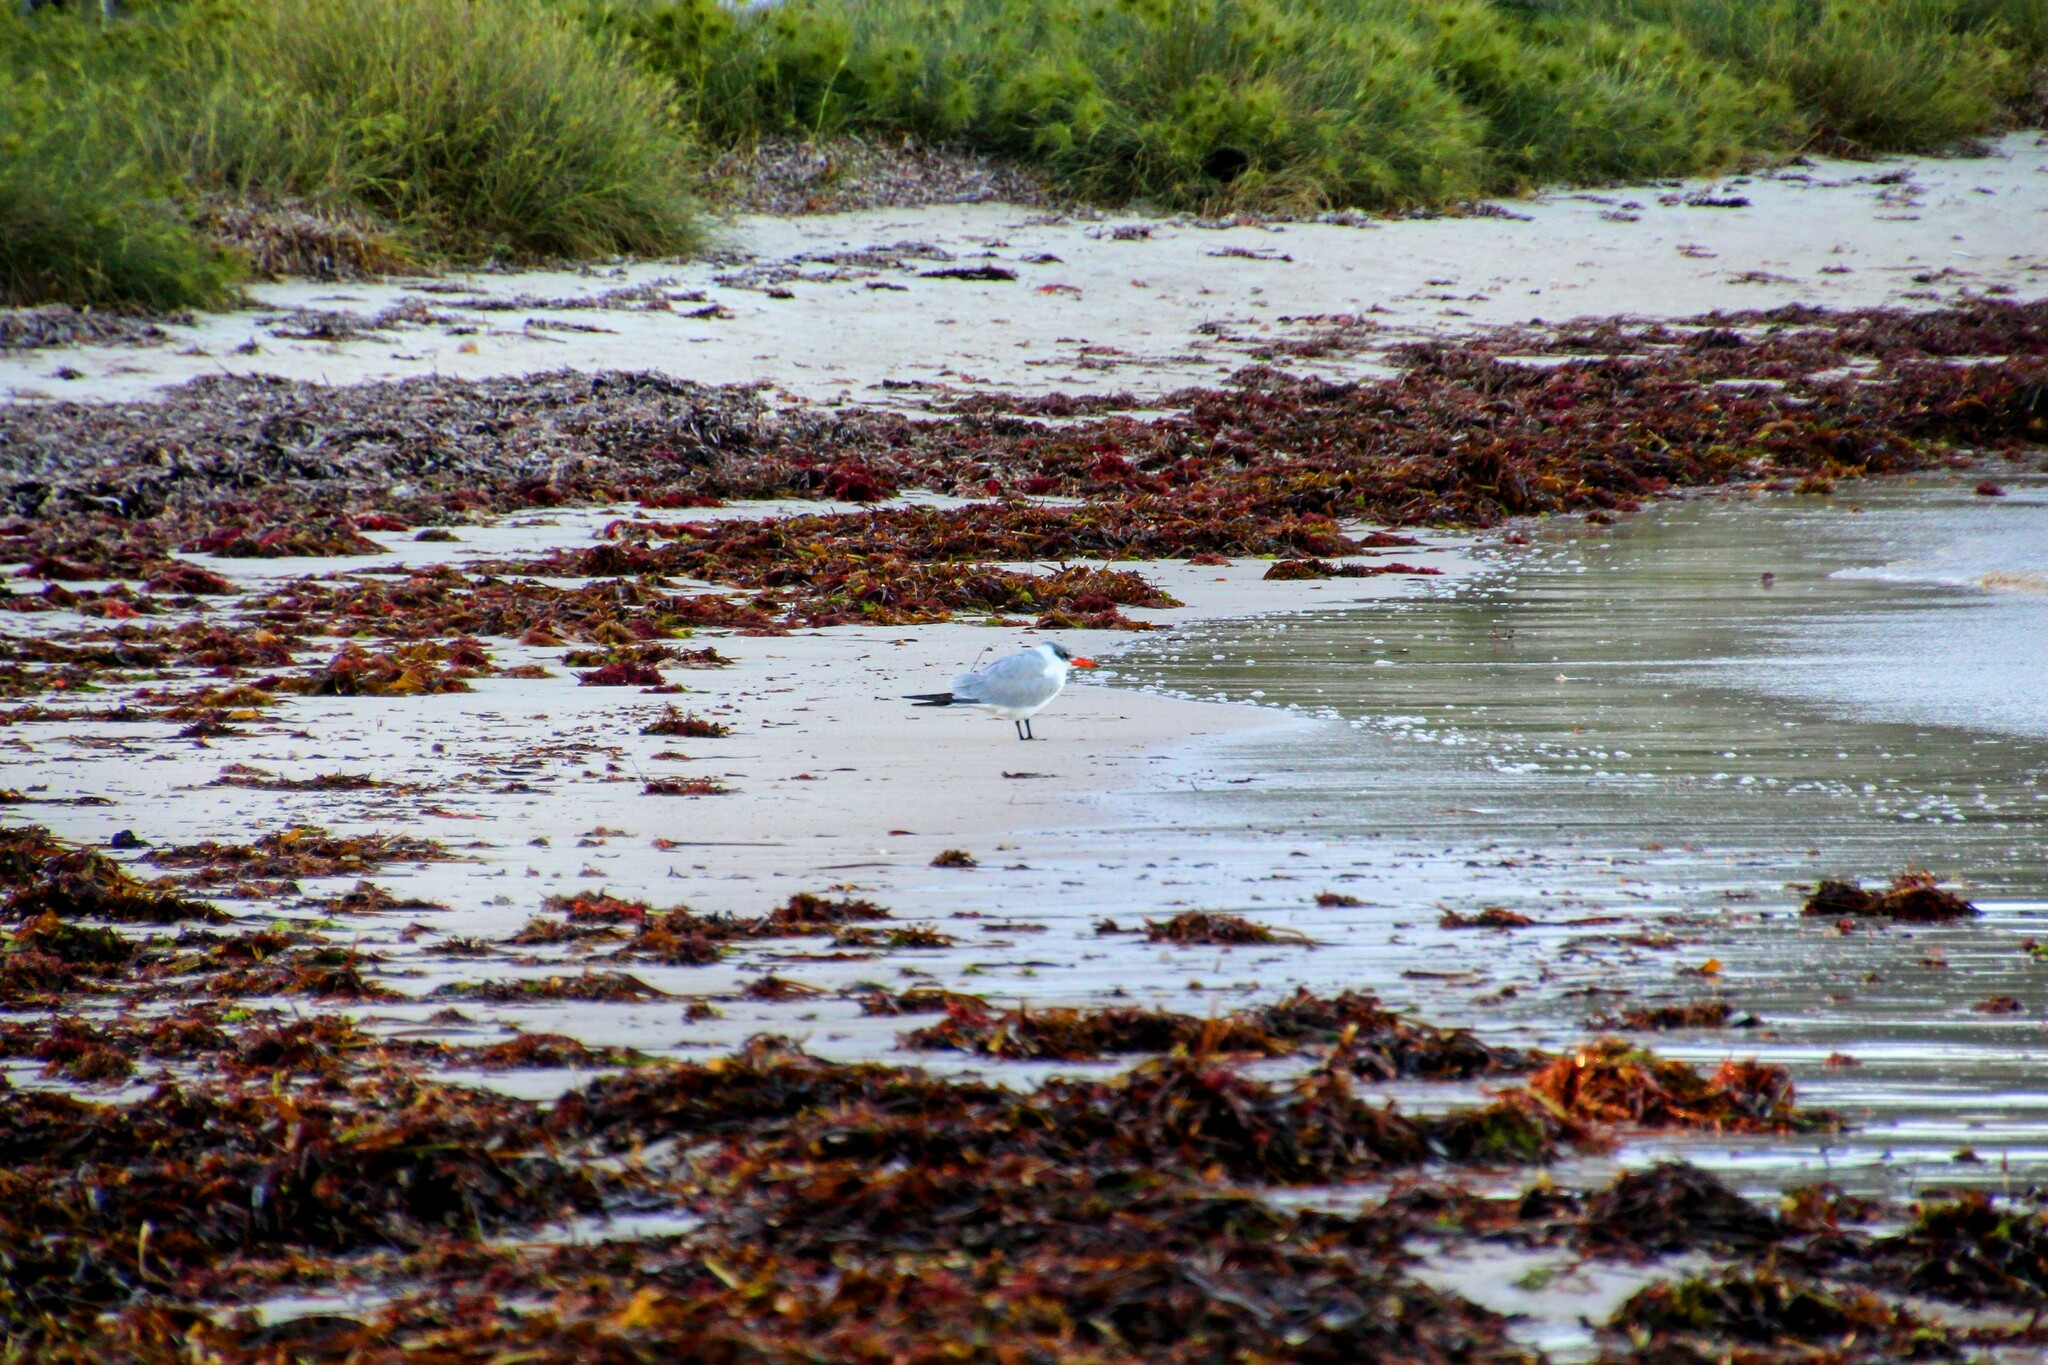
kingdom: Animalia
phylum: Chordata
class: Aves
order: Charadriiformes
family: Laridae
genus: Hydroprogne
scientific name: Hydroprogne caspia
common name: Caspian tern
